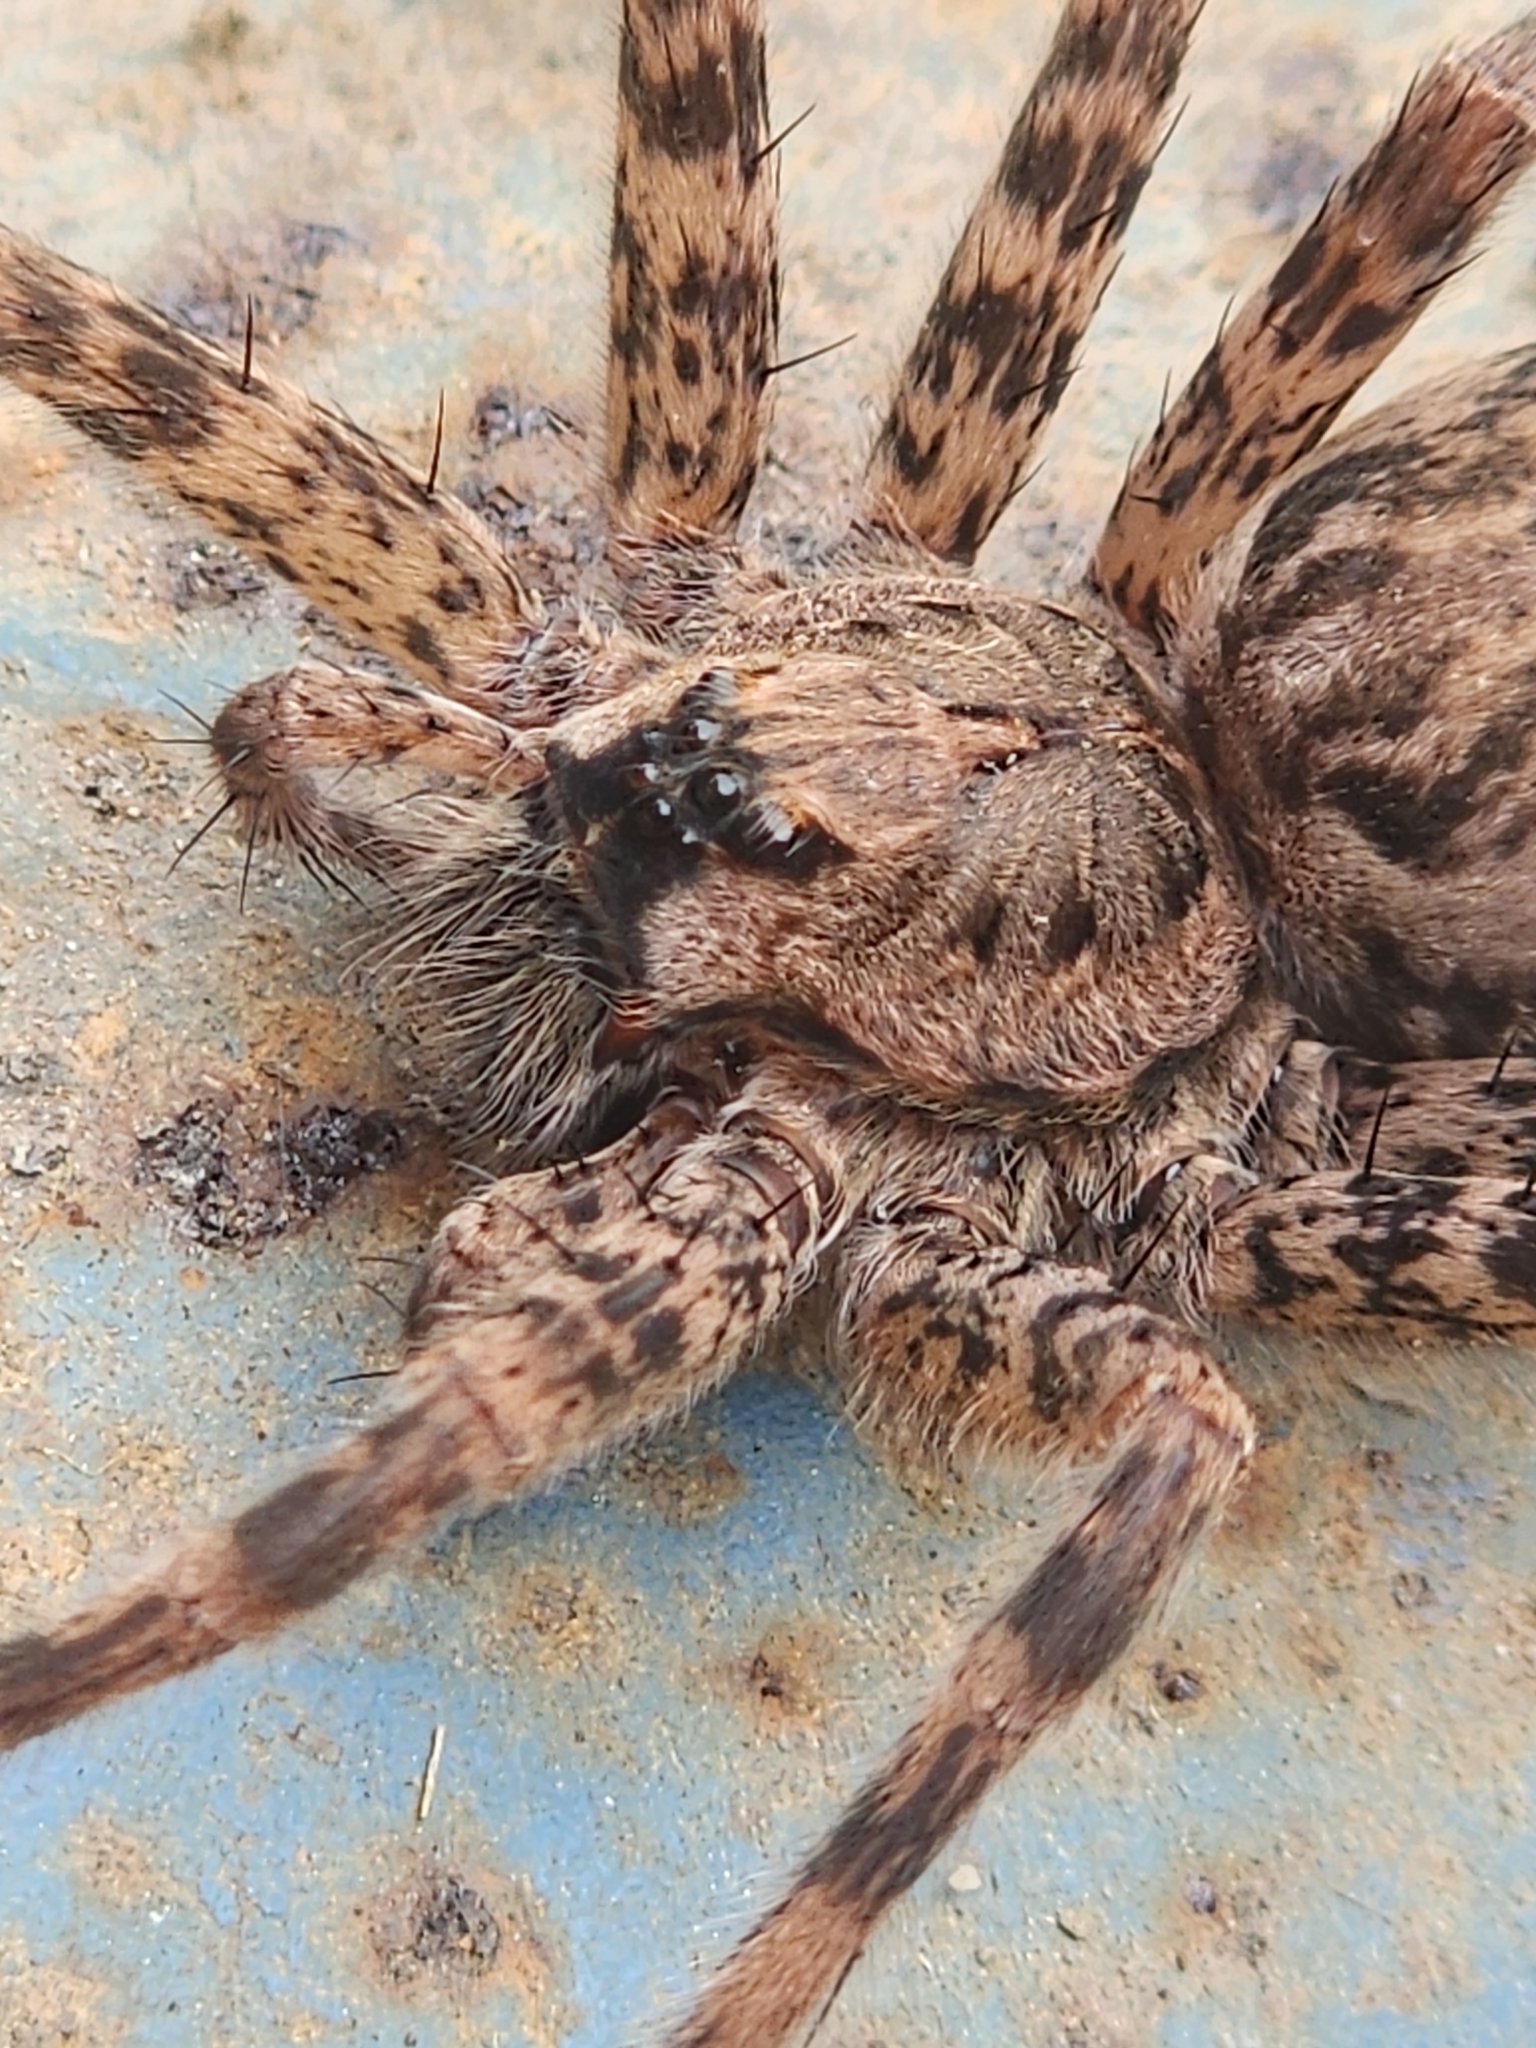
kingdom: Animalia
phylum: Arthropoda
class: Arachnida
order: Araneae
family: Pisauridae
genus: Dolomedes
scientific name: Dolomedes tenebrosus
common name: Dark fishing spider
